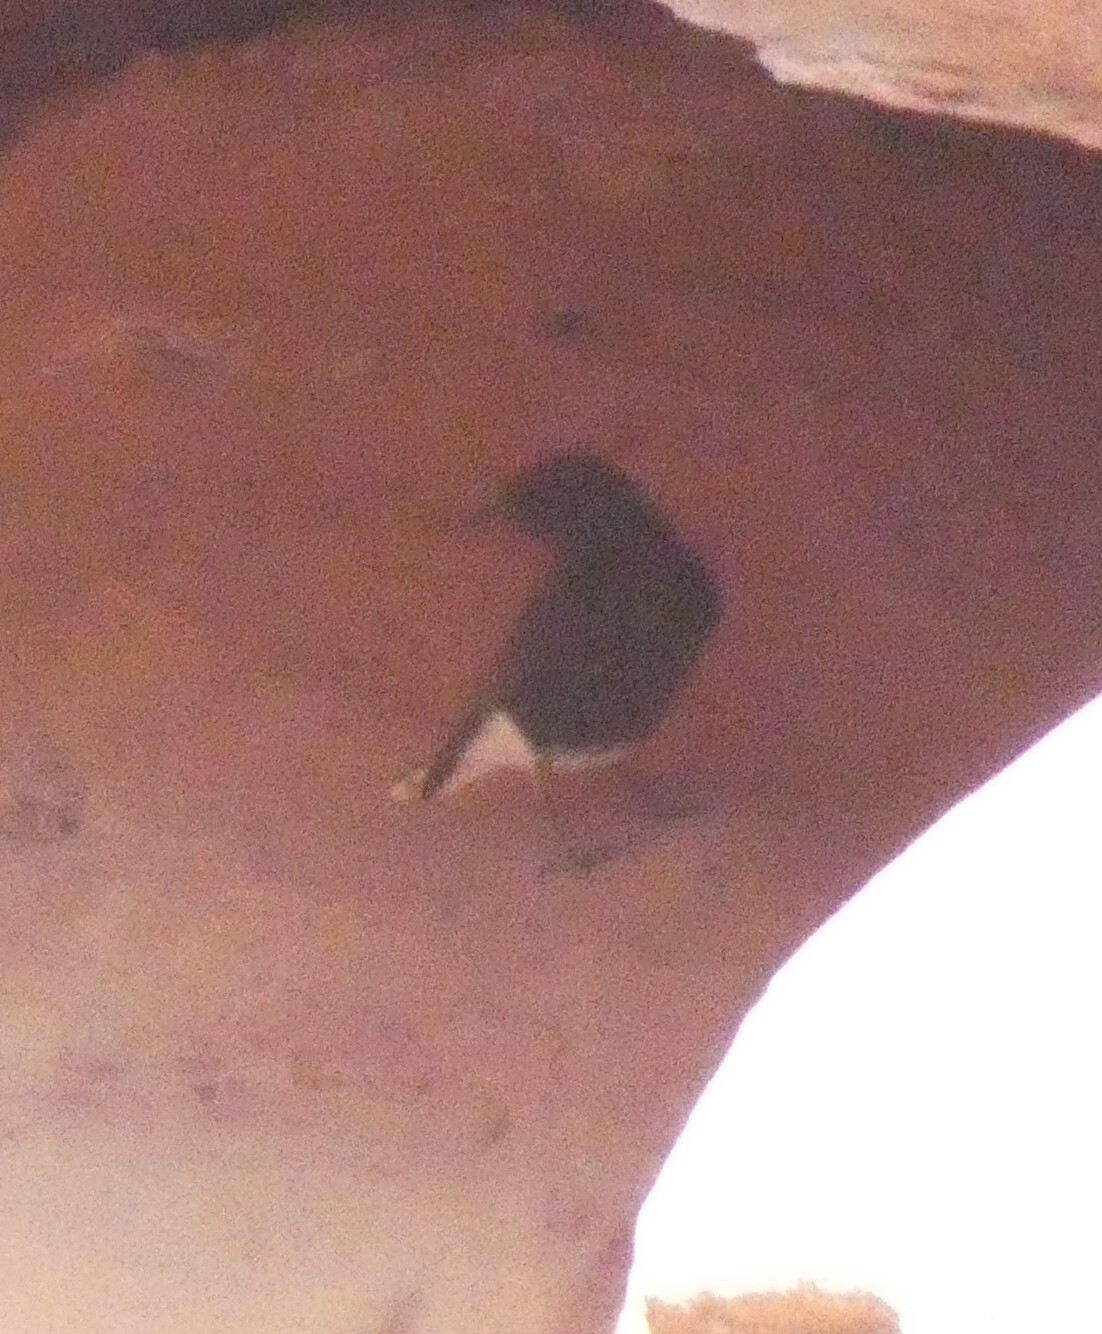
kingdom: Animalia
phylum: Chordata
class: Aves
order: Passeriformes
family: Muscicapidae
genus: Oenanthe
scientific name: Oenanthe leucopyga
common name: White-crowned wheatear
